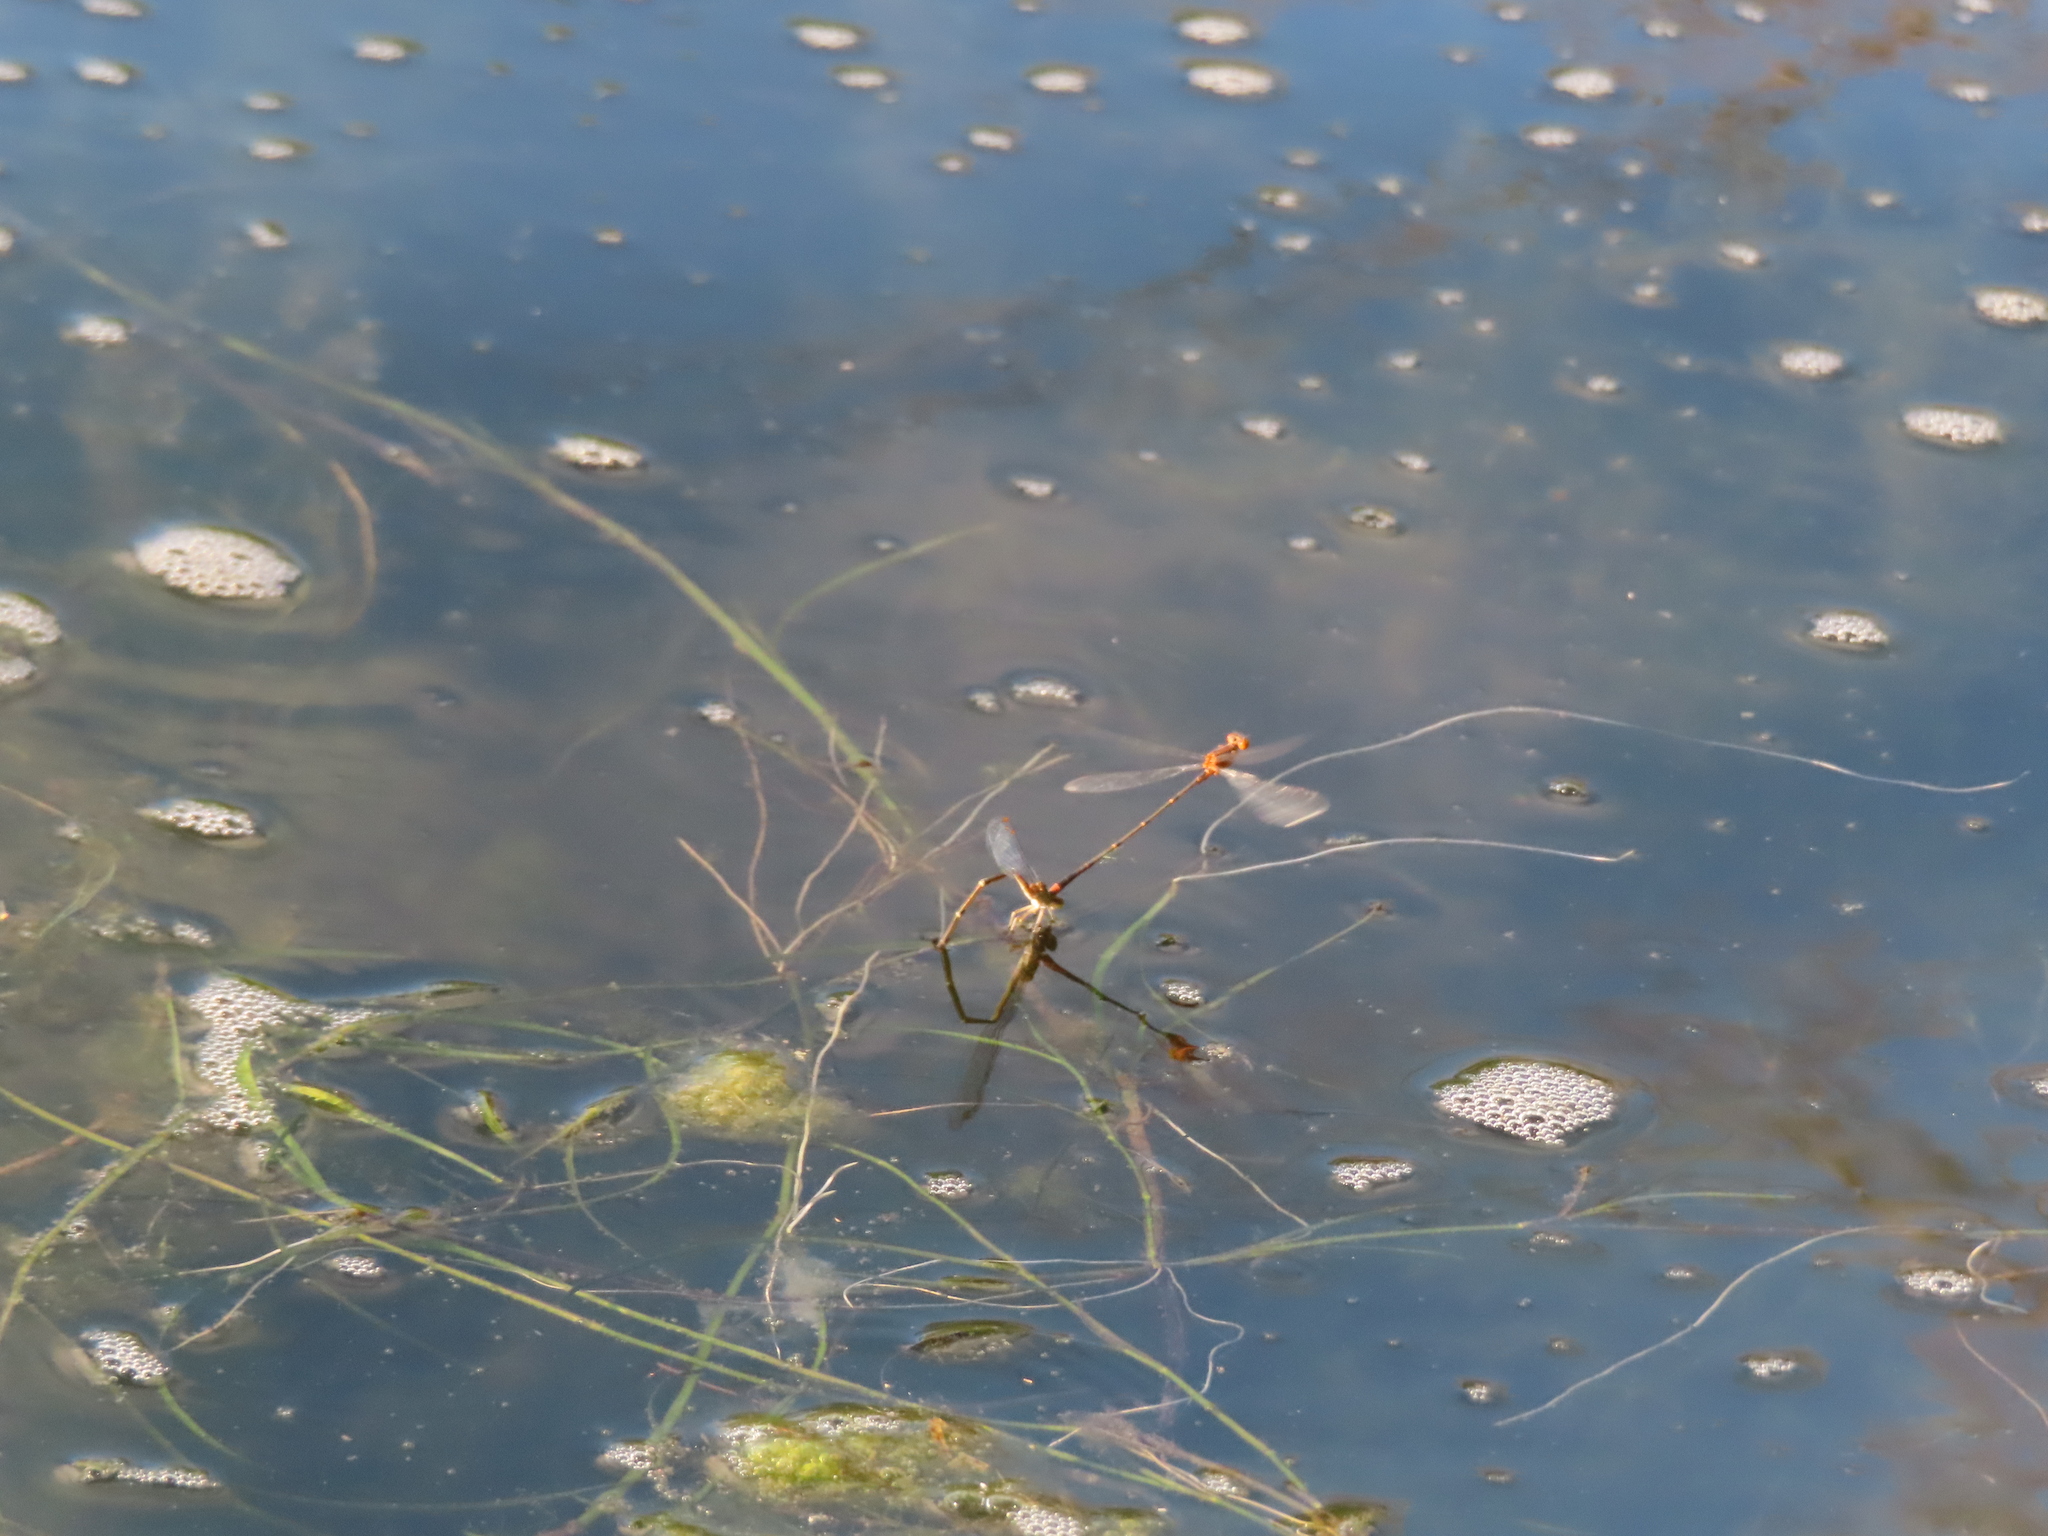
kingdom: Animalia
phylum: Arthropoda
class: Insecta
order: Odonata
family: Coenagrionidae
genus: Enallagma
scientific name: Enallagma signatum
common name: Orange bluet
